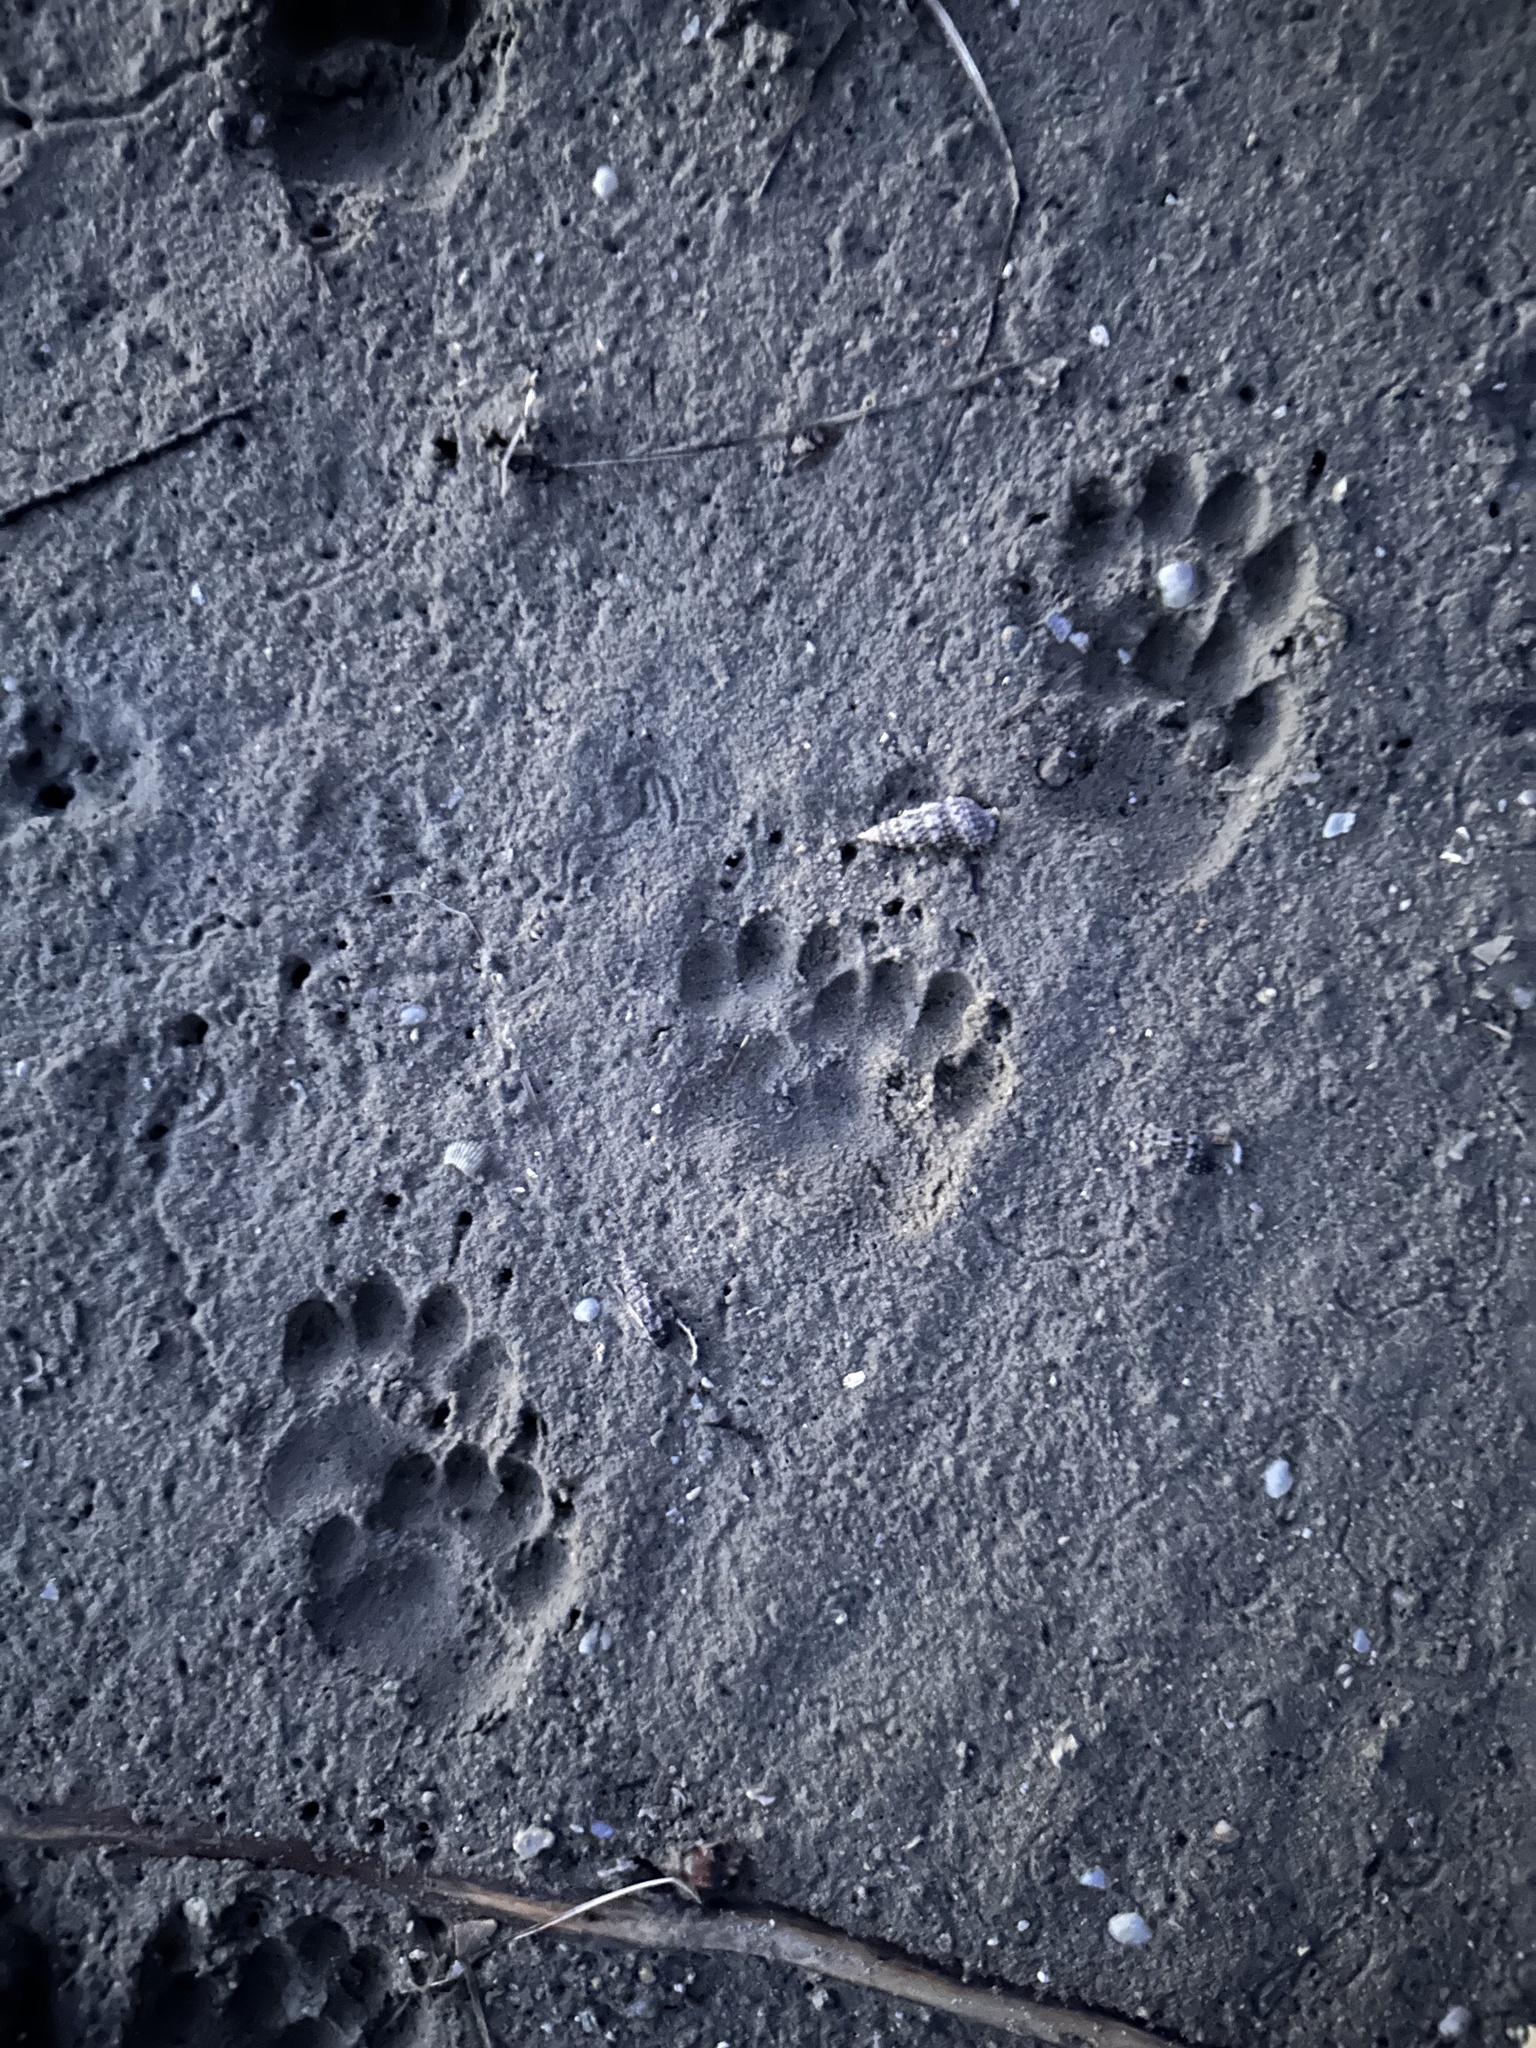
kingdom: Animalia
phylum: Chordata
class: Mammalia
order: Carnivora
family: Mustelidae
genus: Meles
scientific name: Meles meles
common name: Eurasian badger
